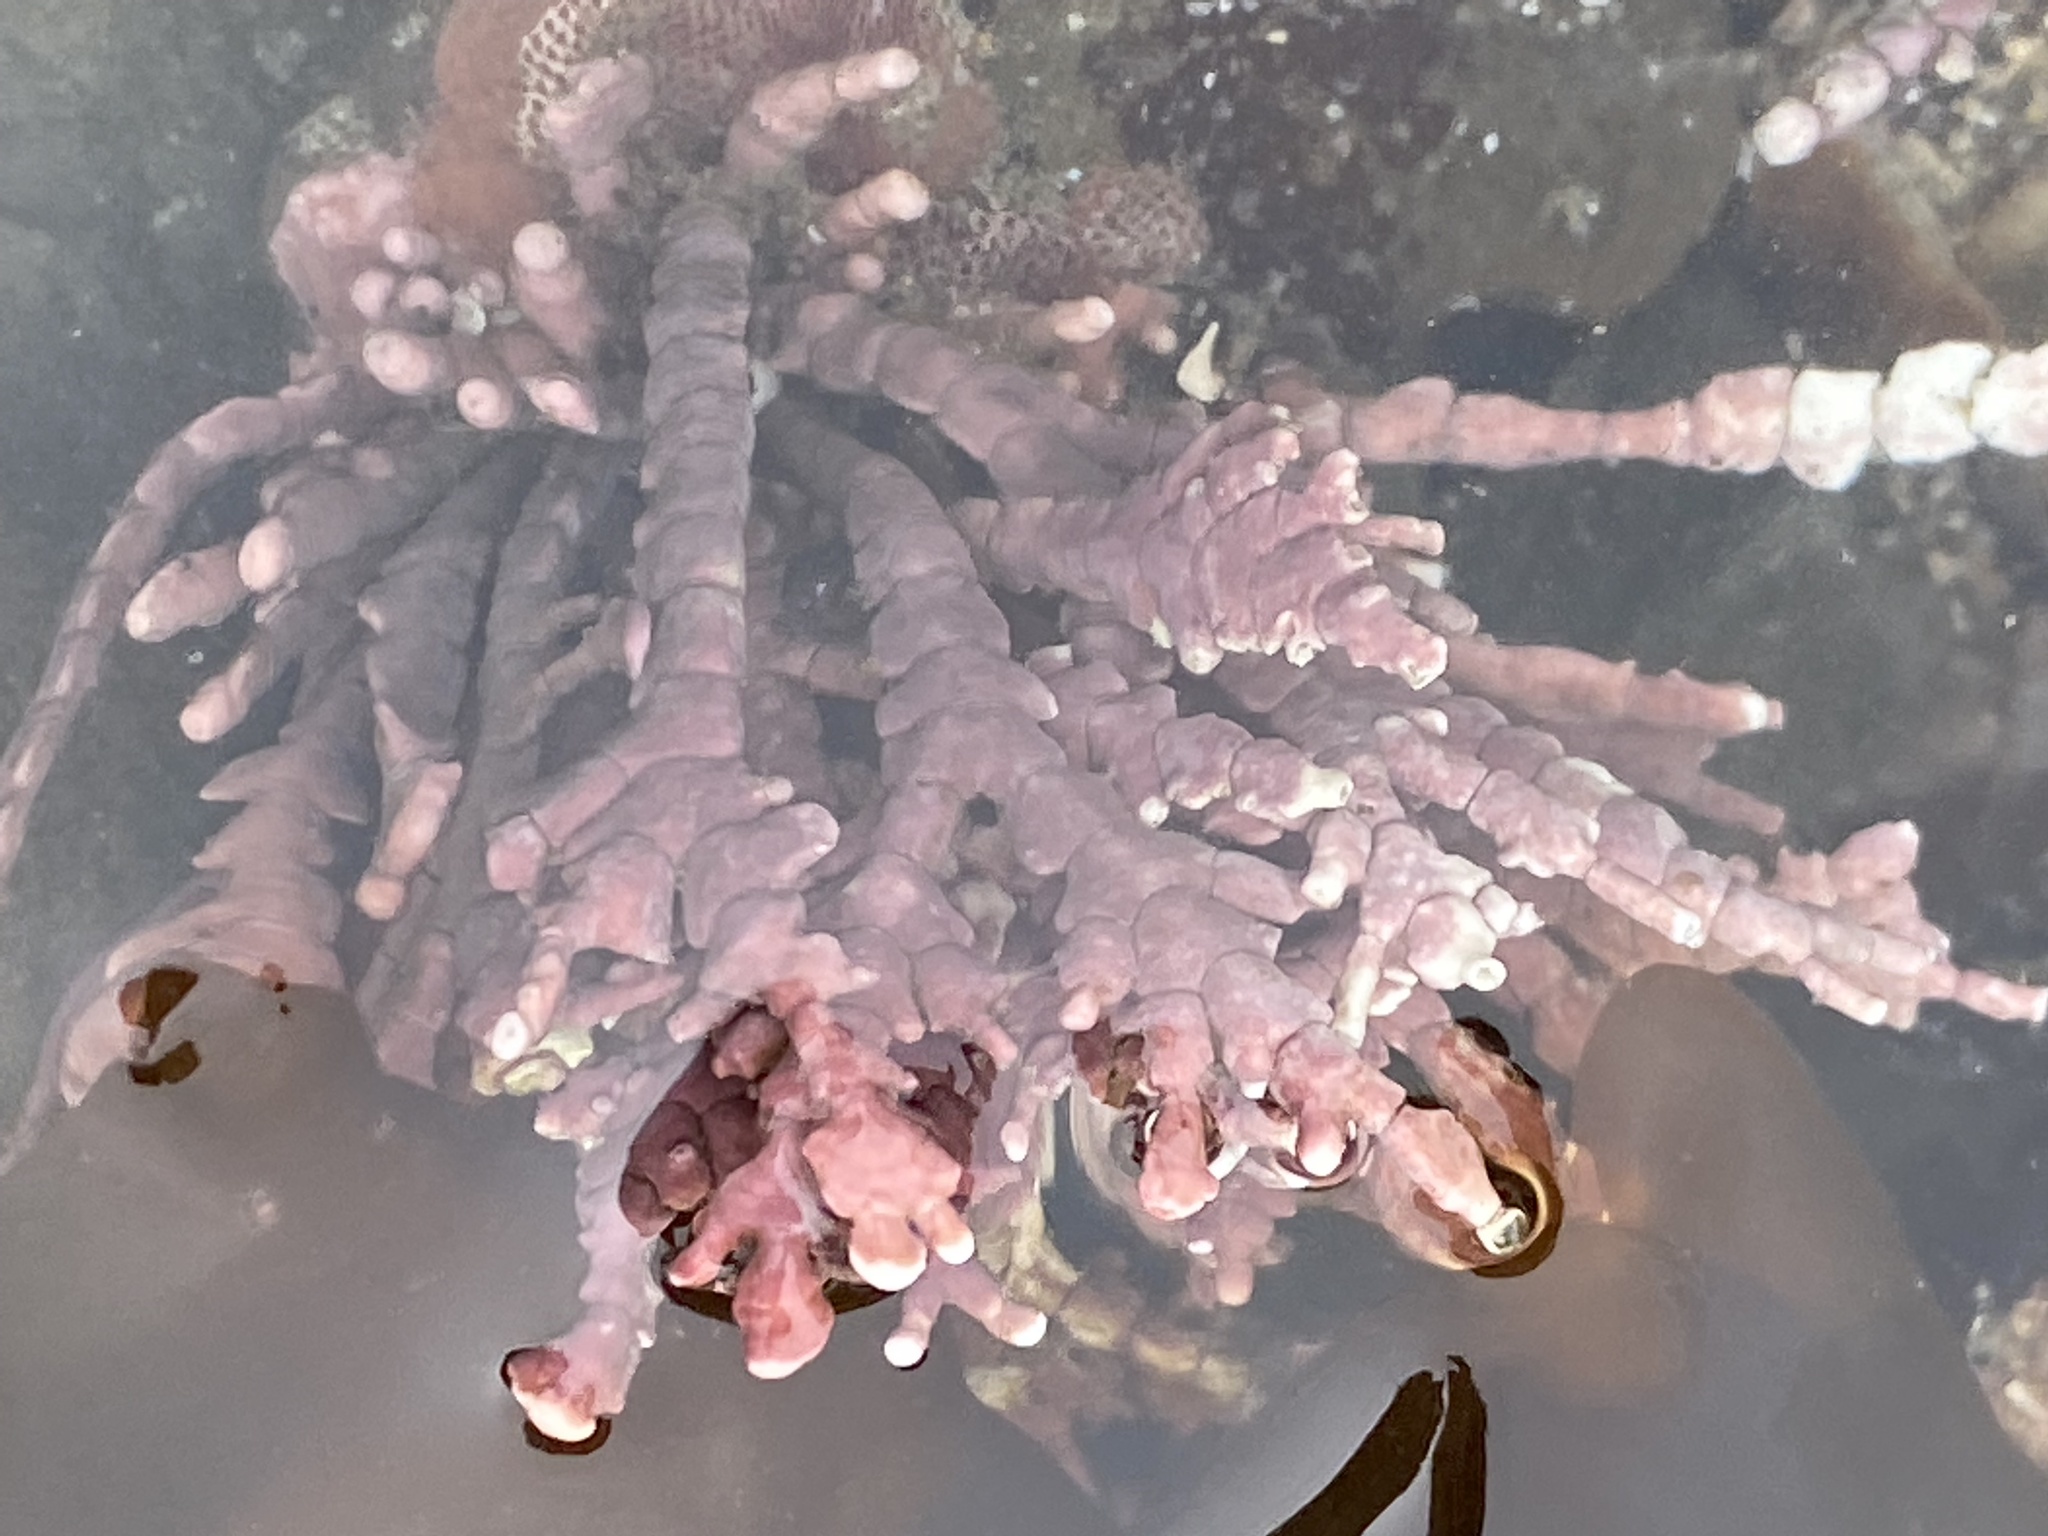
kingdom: Plantae
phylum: Rhodophyta
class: Florideophyceae
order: Corallinales
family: Corallinaceae
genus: Calliarthron
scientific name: Calliarthron tuberculosum
